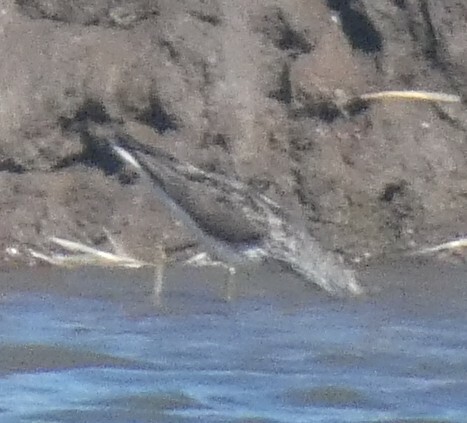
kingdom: Animalia
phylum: Chordata
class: Aves
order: Charadriiformes
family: Scolopacidae
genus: Tringa
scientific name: Tringa nebularia
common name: Common greenshank
